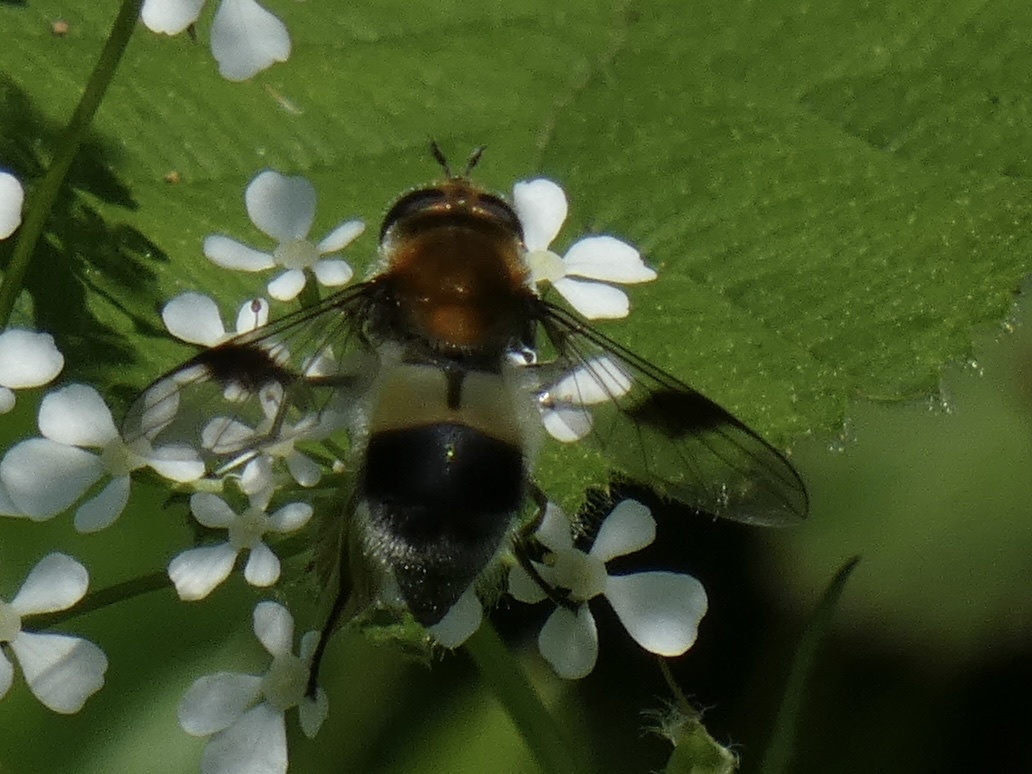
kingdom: Animalia
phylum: Arthropoda
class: Insecta
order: Diptera
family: Syrphidae
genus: Leucozona
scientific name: Leucozona lucorum
